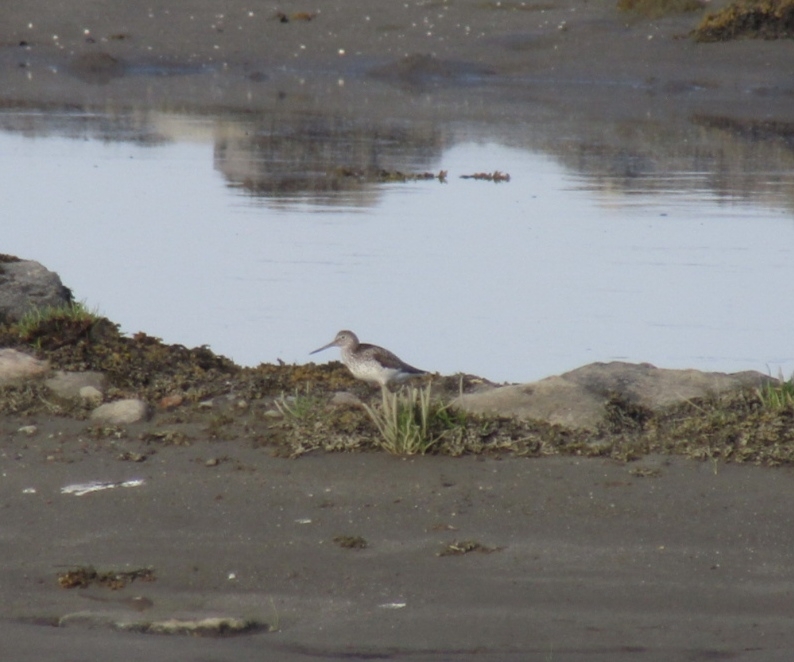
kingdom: Animalia
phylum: Chordata
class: Aves
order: Charadriiformes
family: Scolopacidae
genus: Tringa
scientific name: Tringa nebularia
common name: Common greenshank
